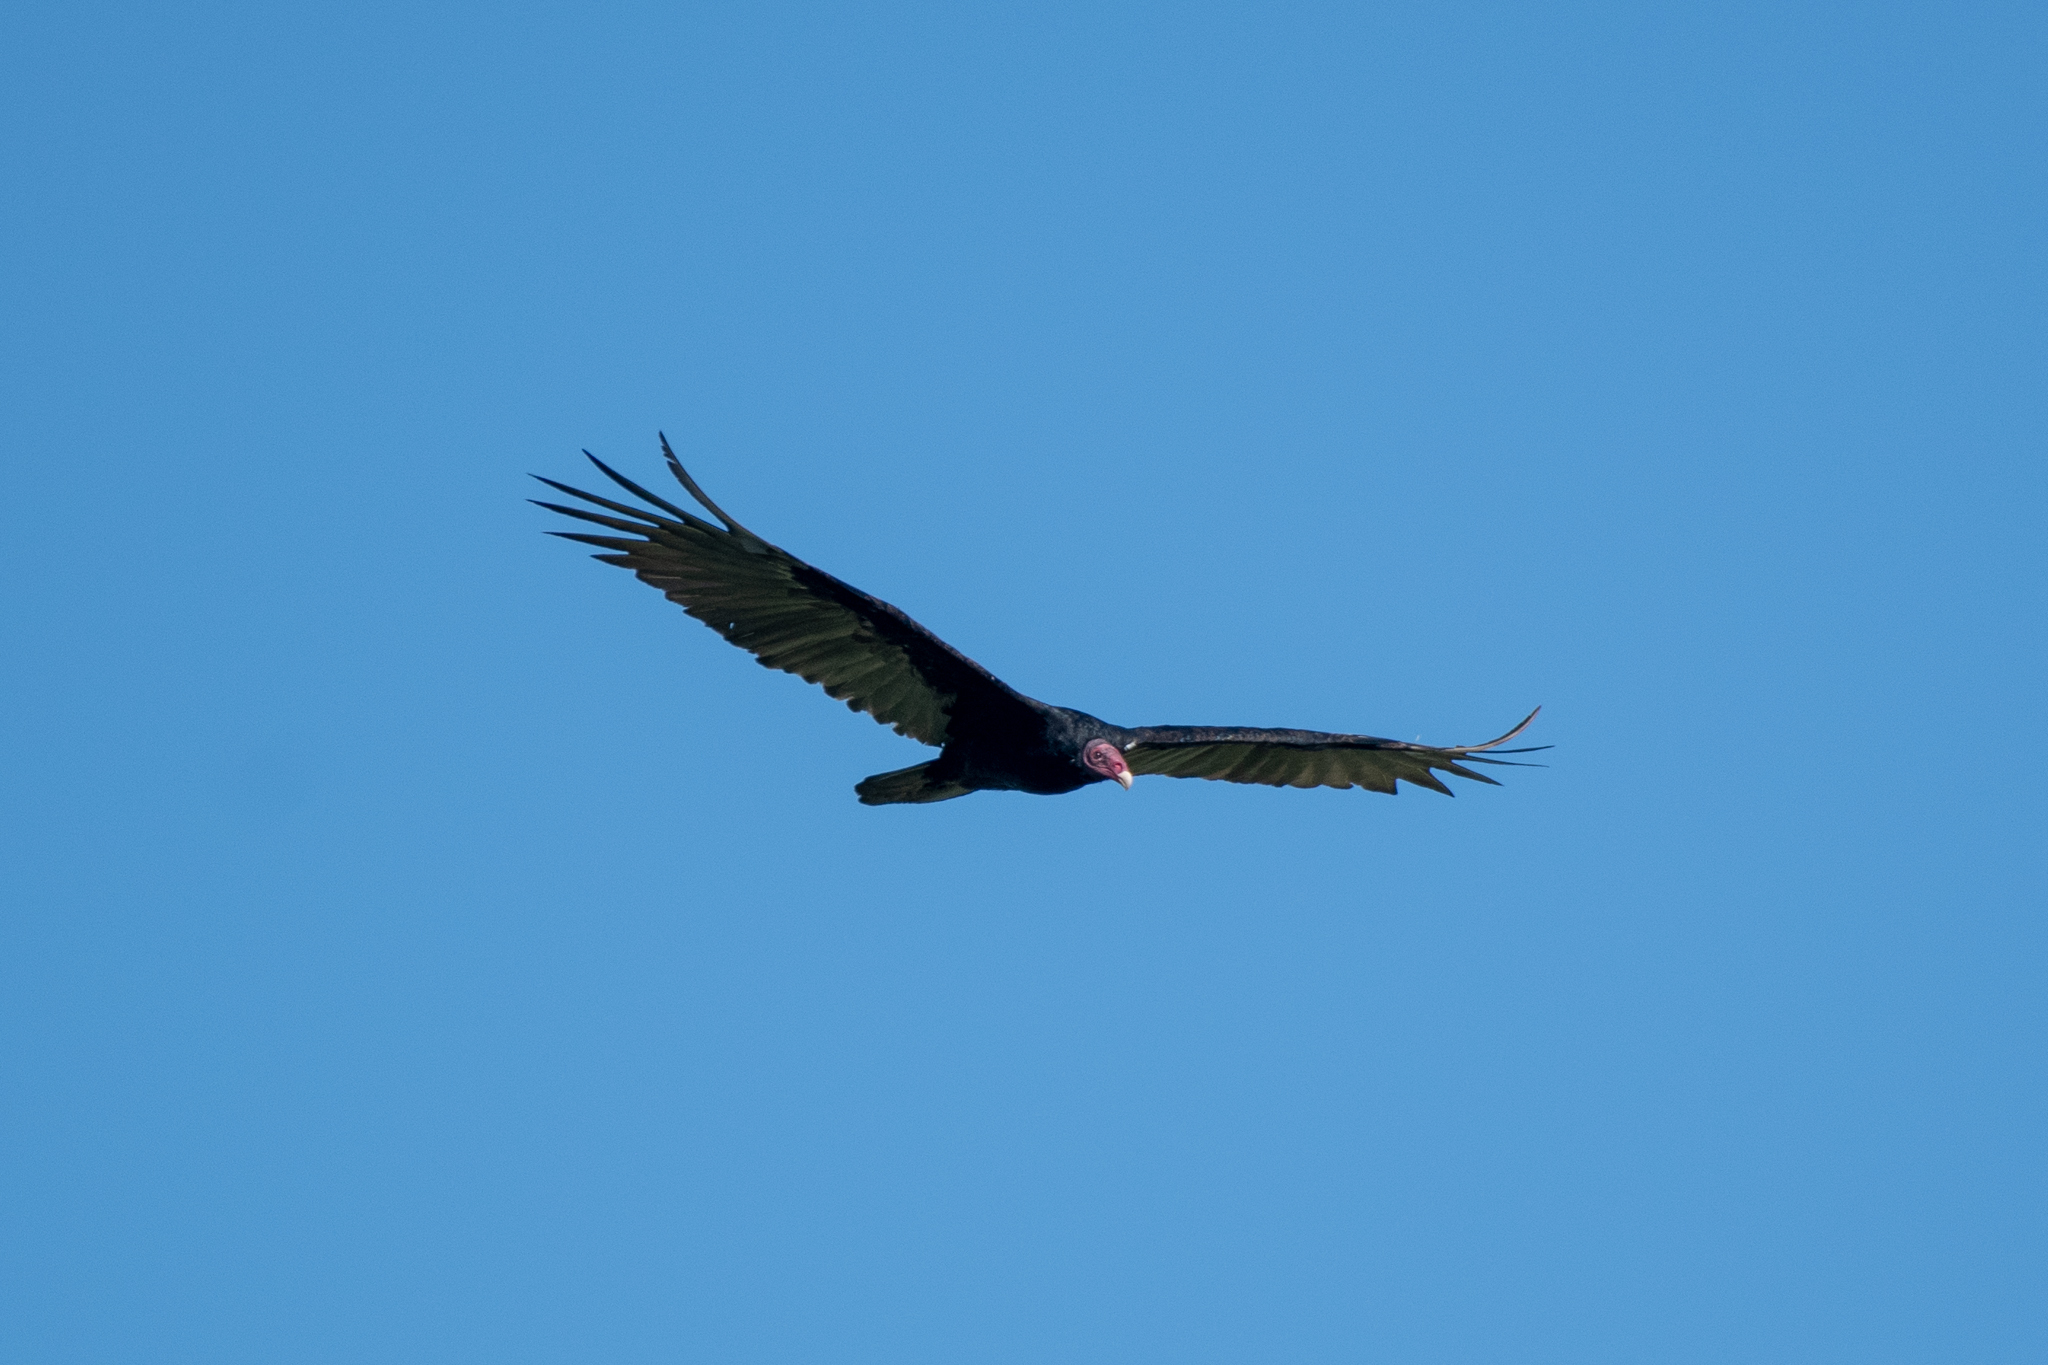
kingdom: Animalia
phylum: Chordata
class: Aves
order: Accipitriformes
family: Cathartidae
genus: Cathartes
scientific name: Cathartes aura
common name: Turkey vulture
